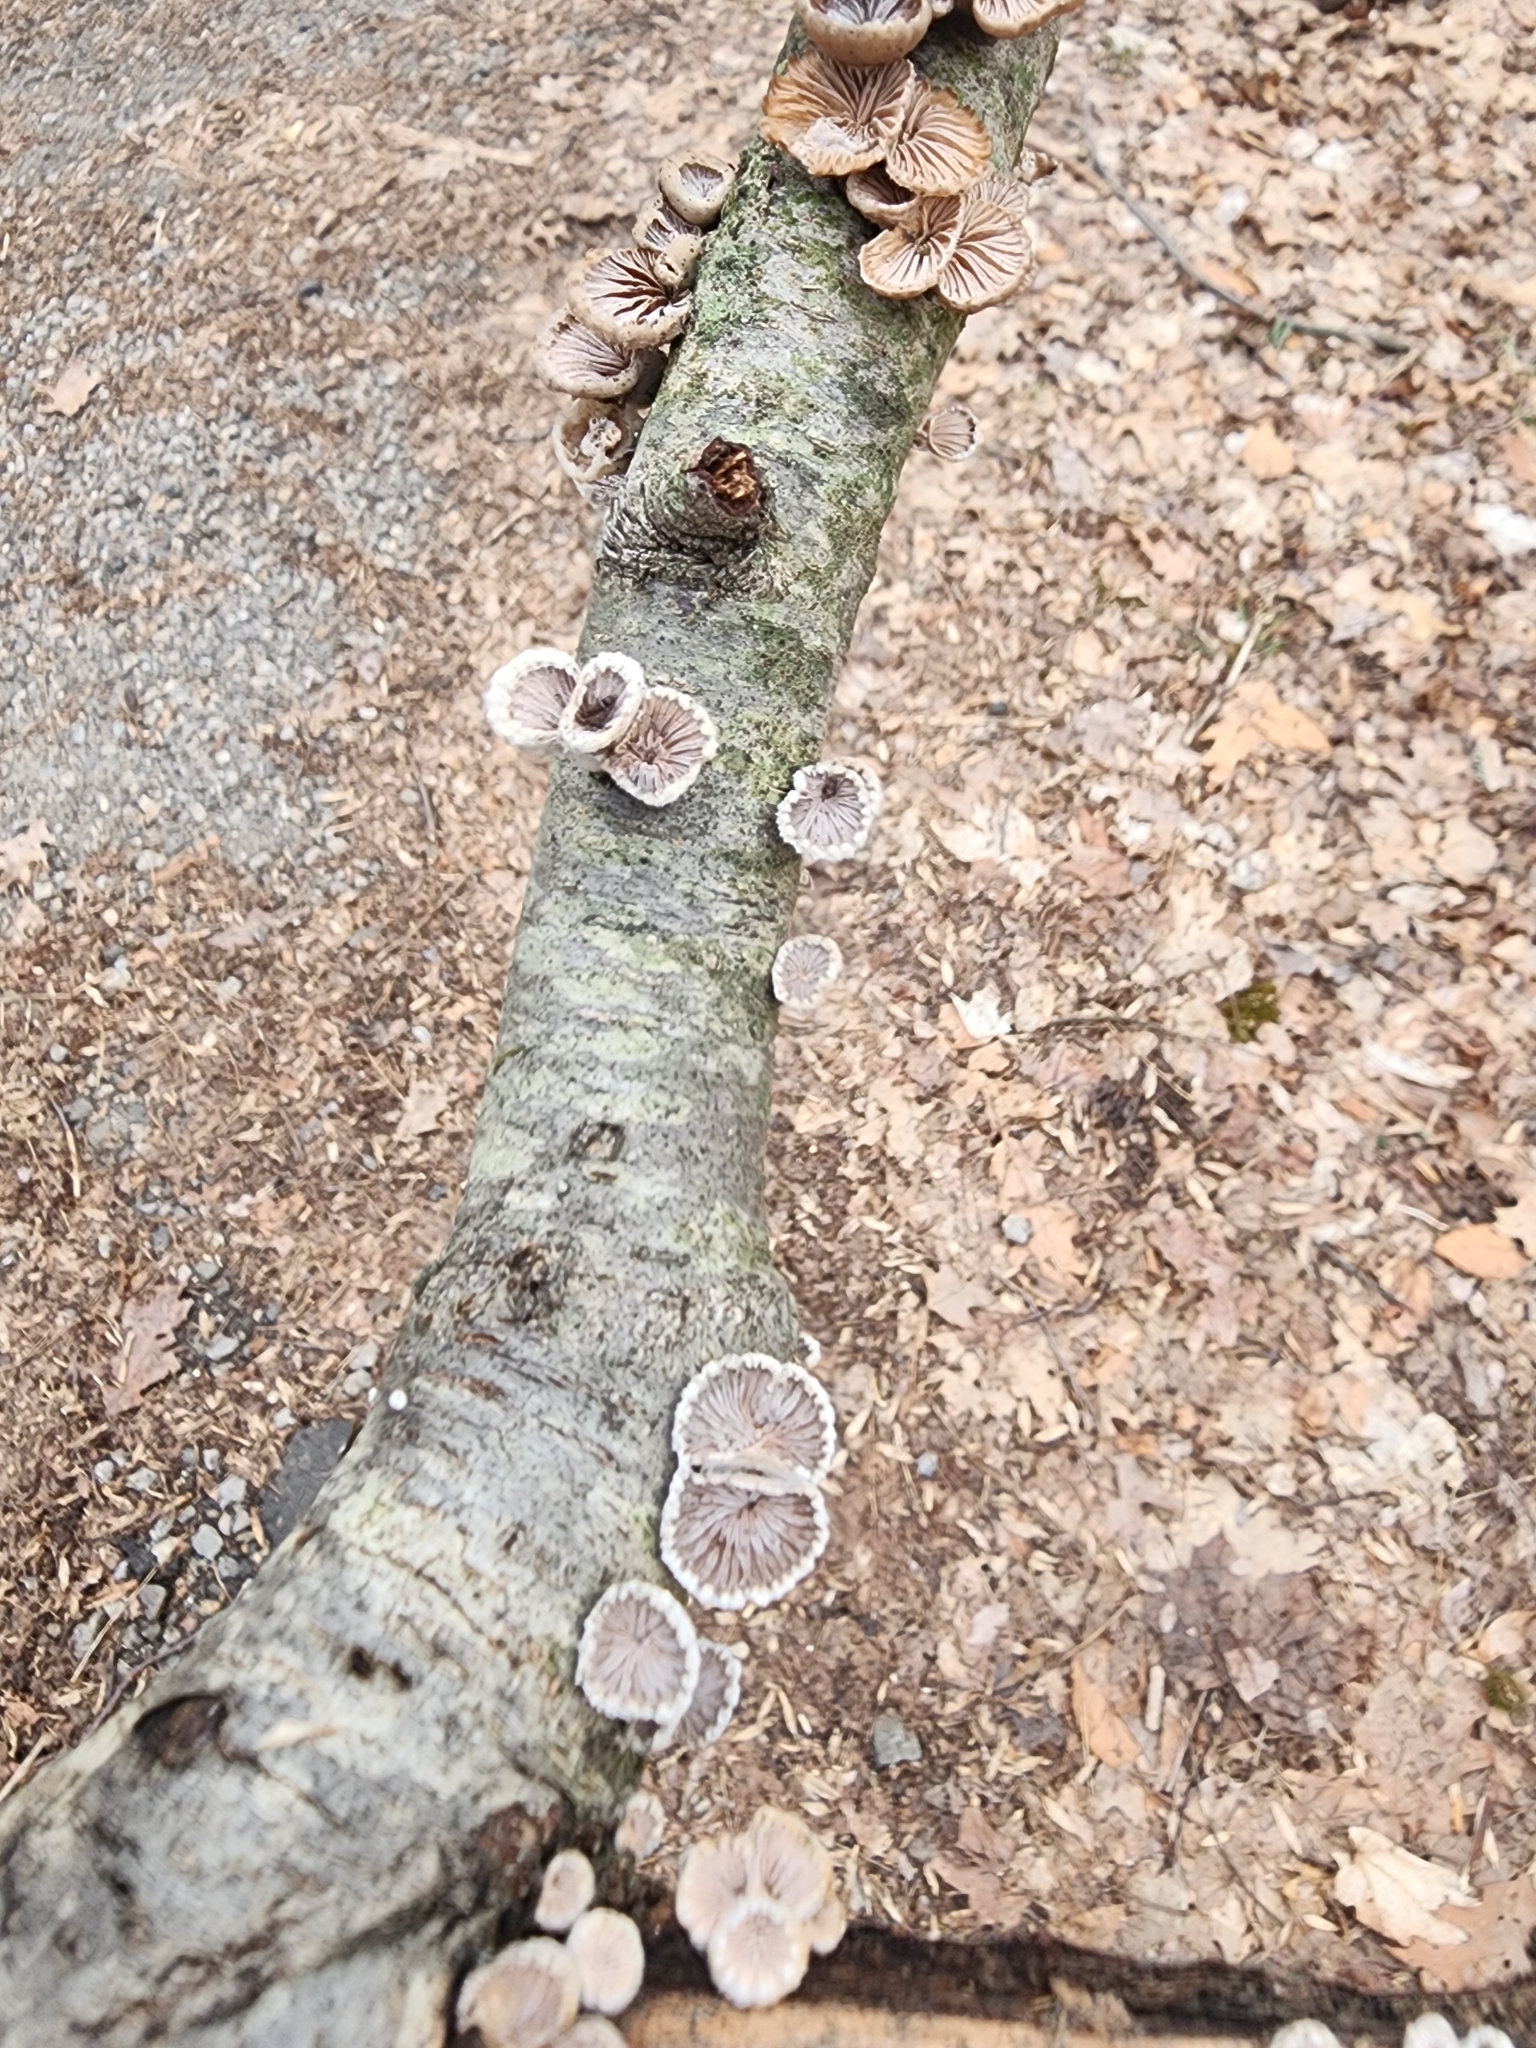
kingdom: Fungi
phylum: Basidiomycota
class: Agaricomycetes
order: Agaricales
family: Schizophyllaceae
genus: Schizophyllum
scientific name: Schizophyllum commune
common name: Common porecrust
